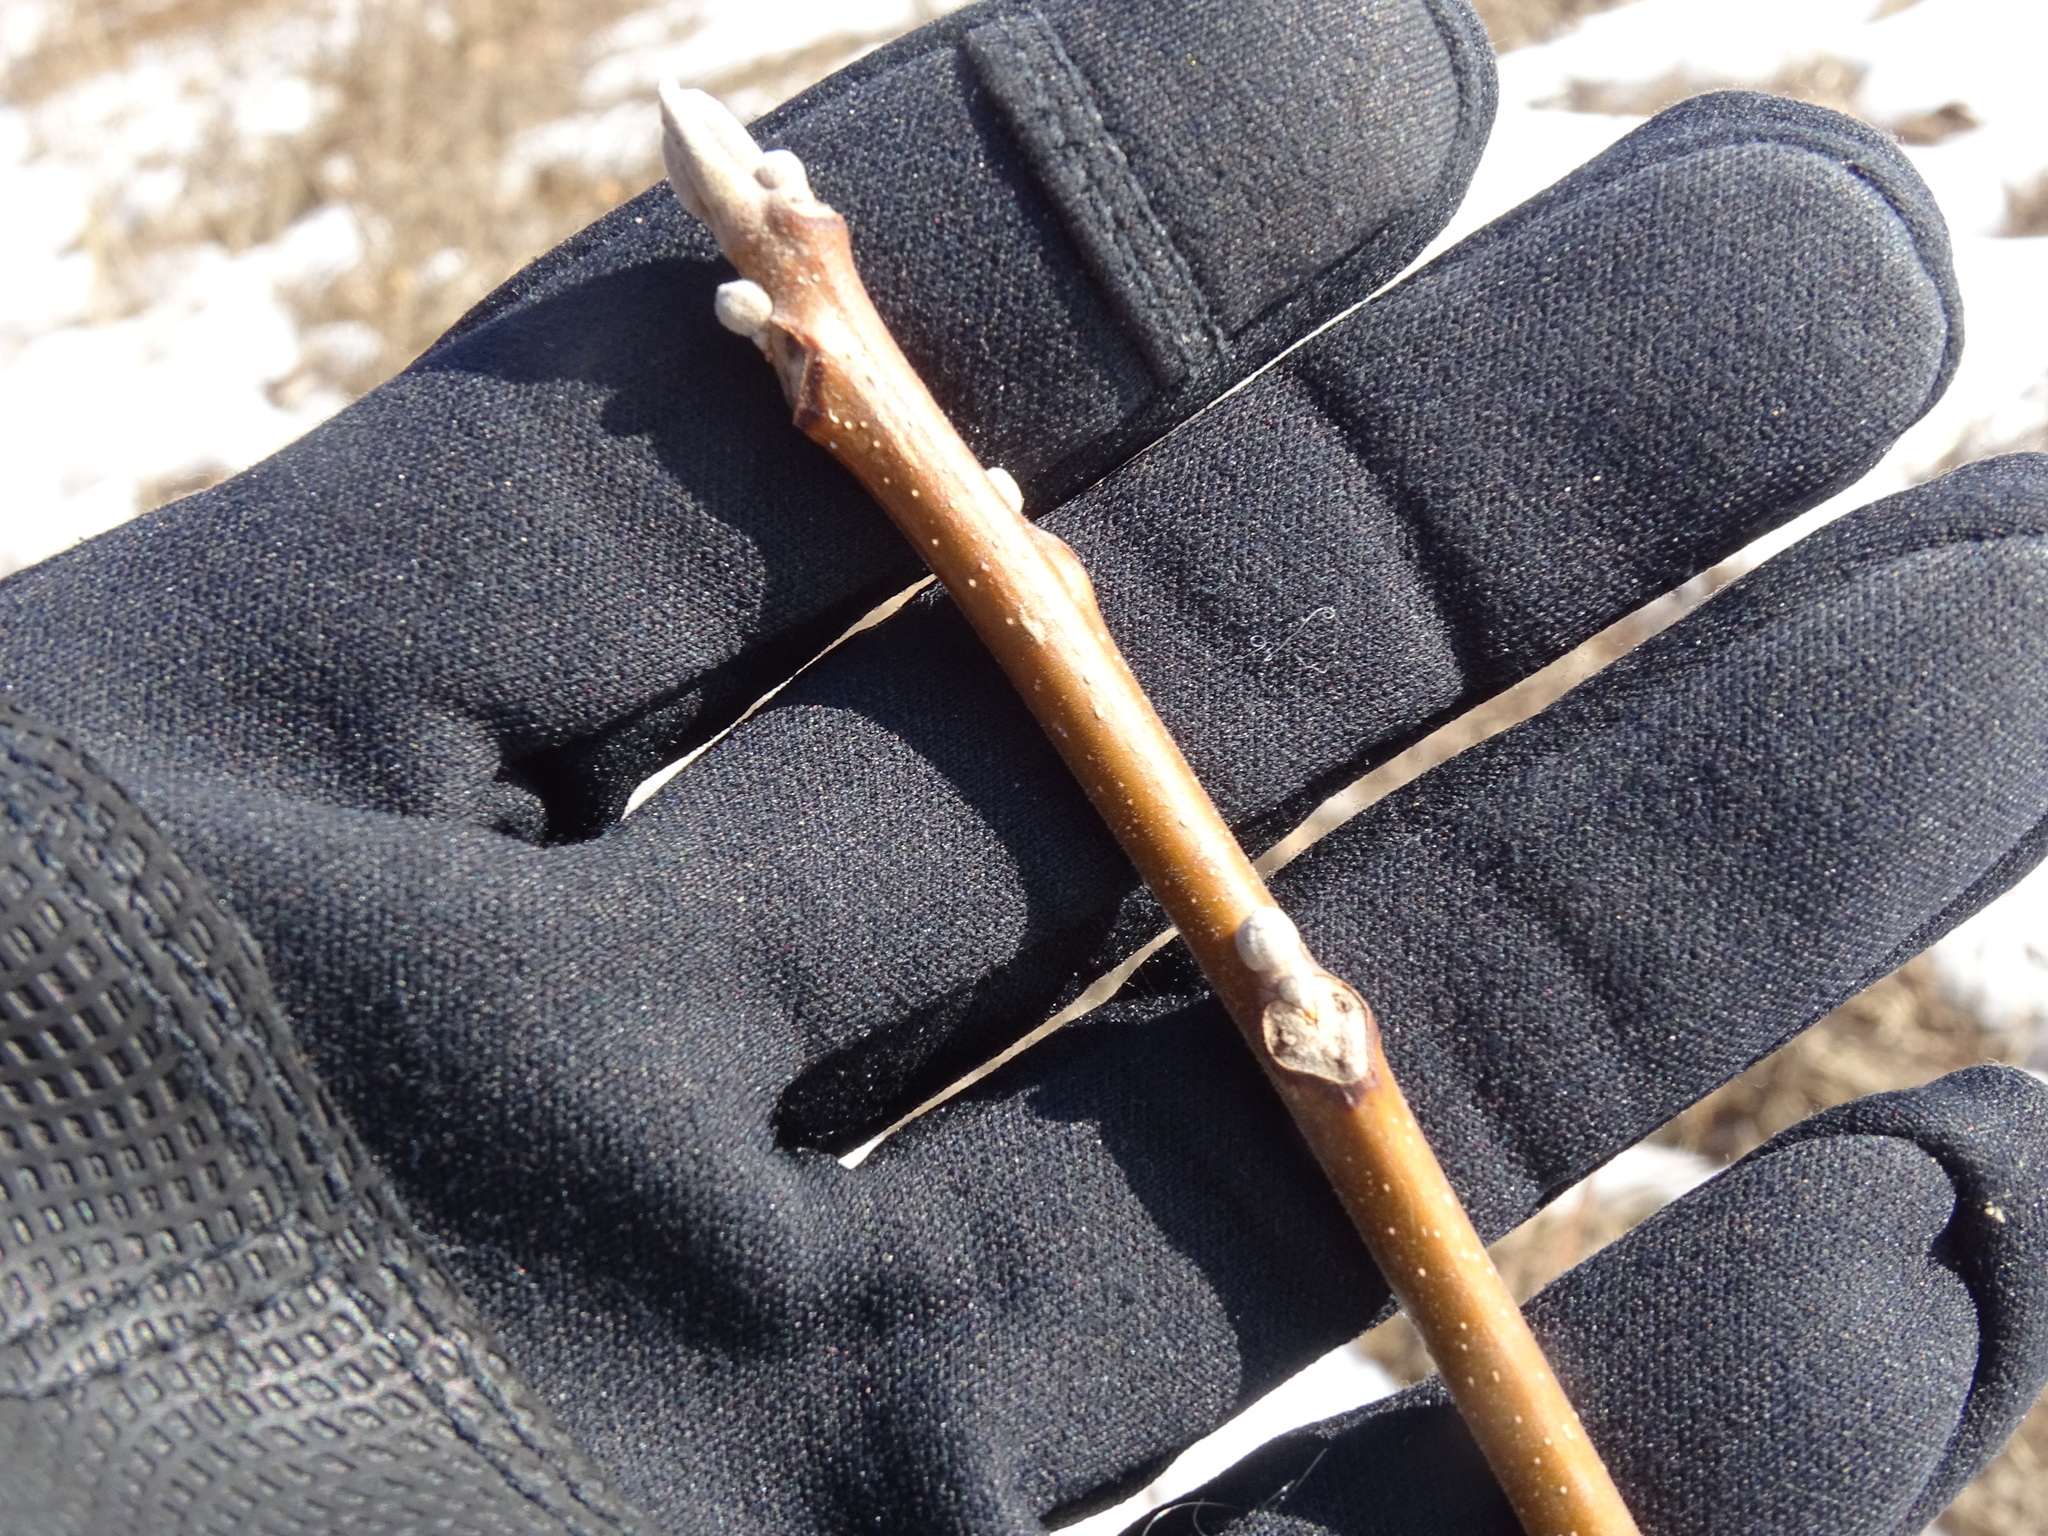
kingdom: Plantae
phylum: Tracheophyta
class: Magnoliopsida
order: Fagales
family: Juglandaceae
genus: Juglans
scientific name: Juglans nigra
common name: Black walnut
